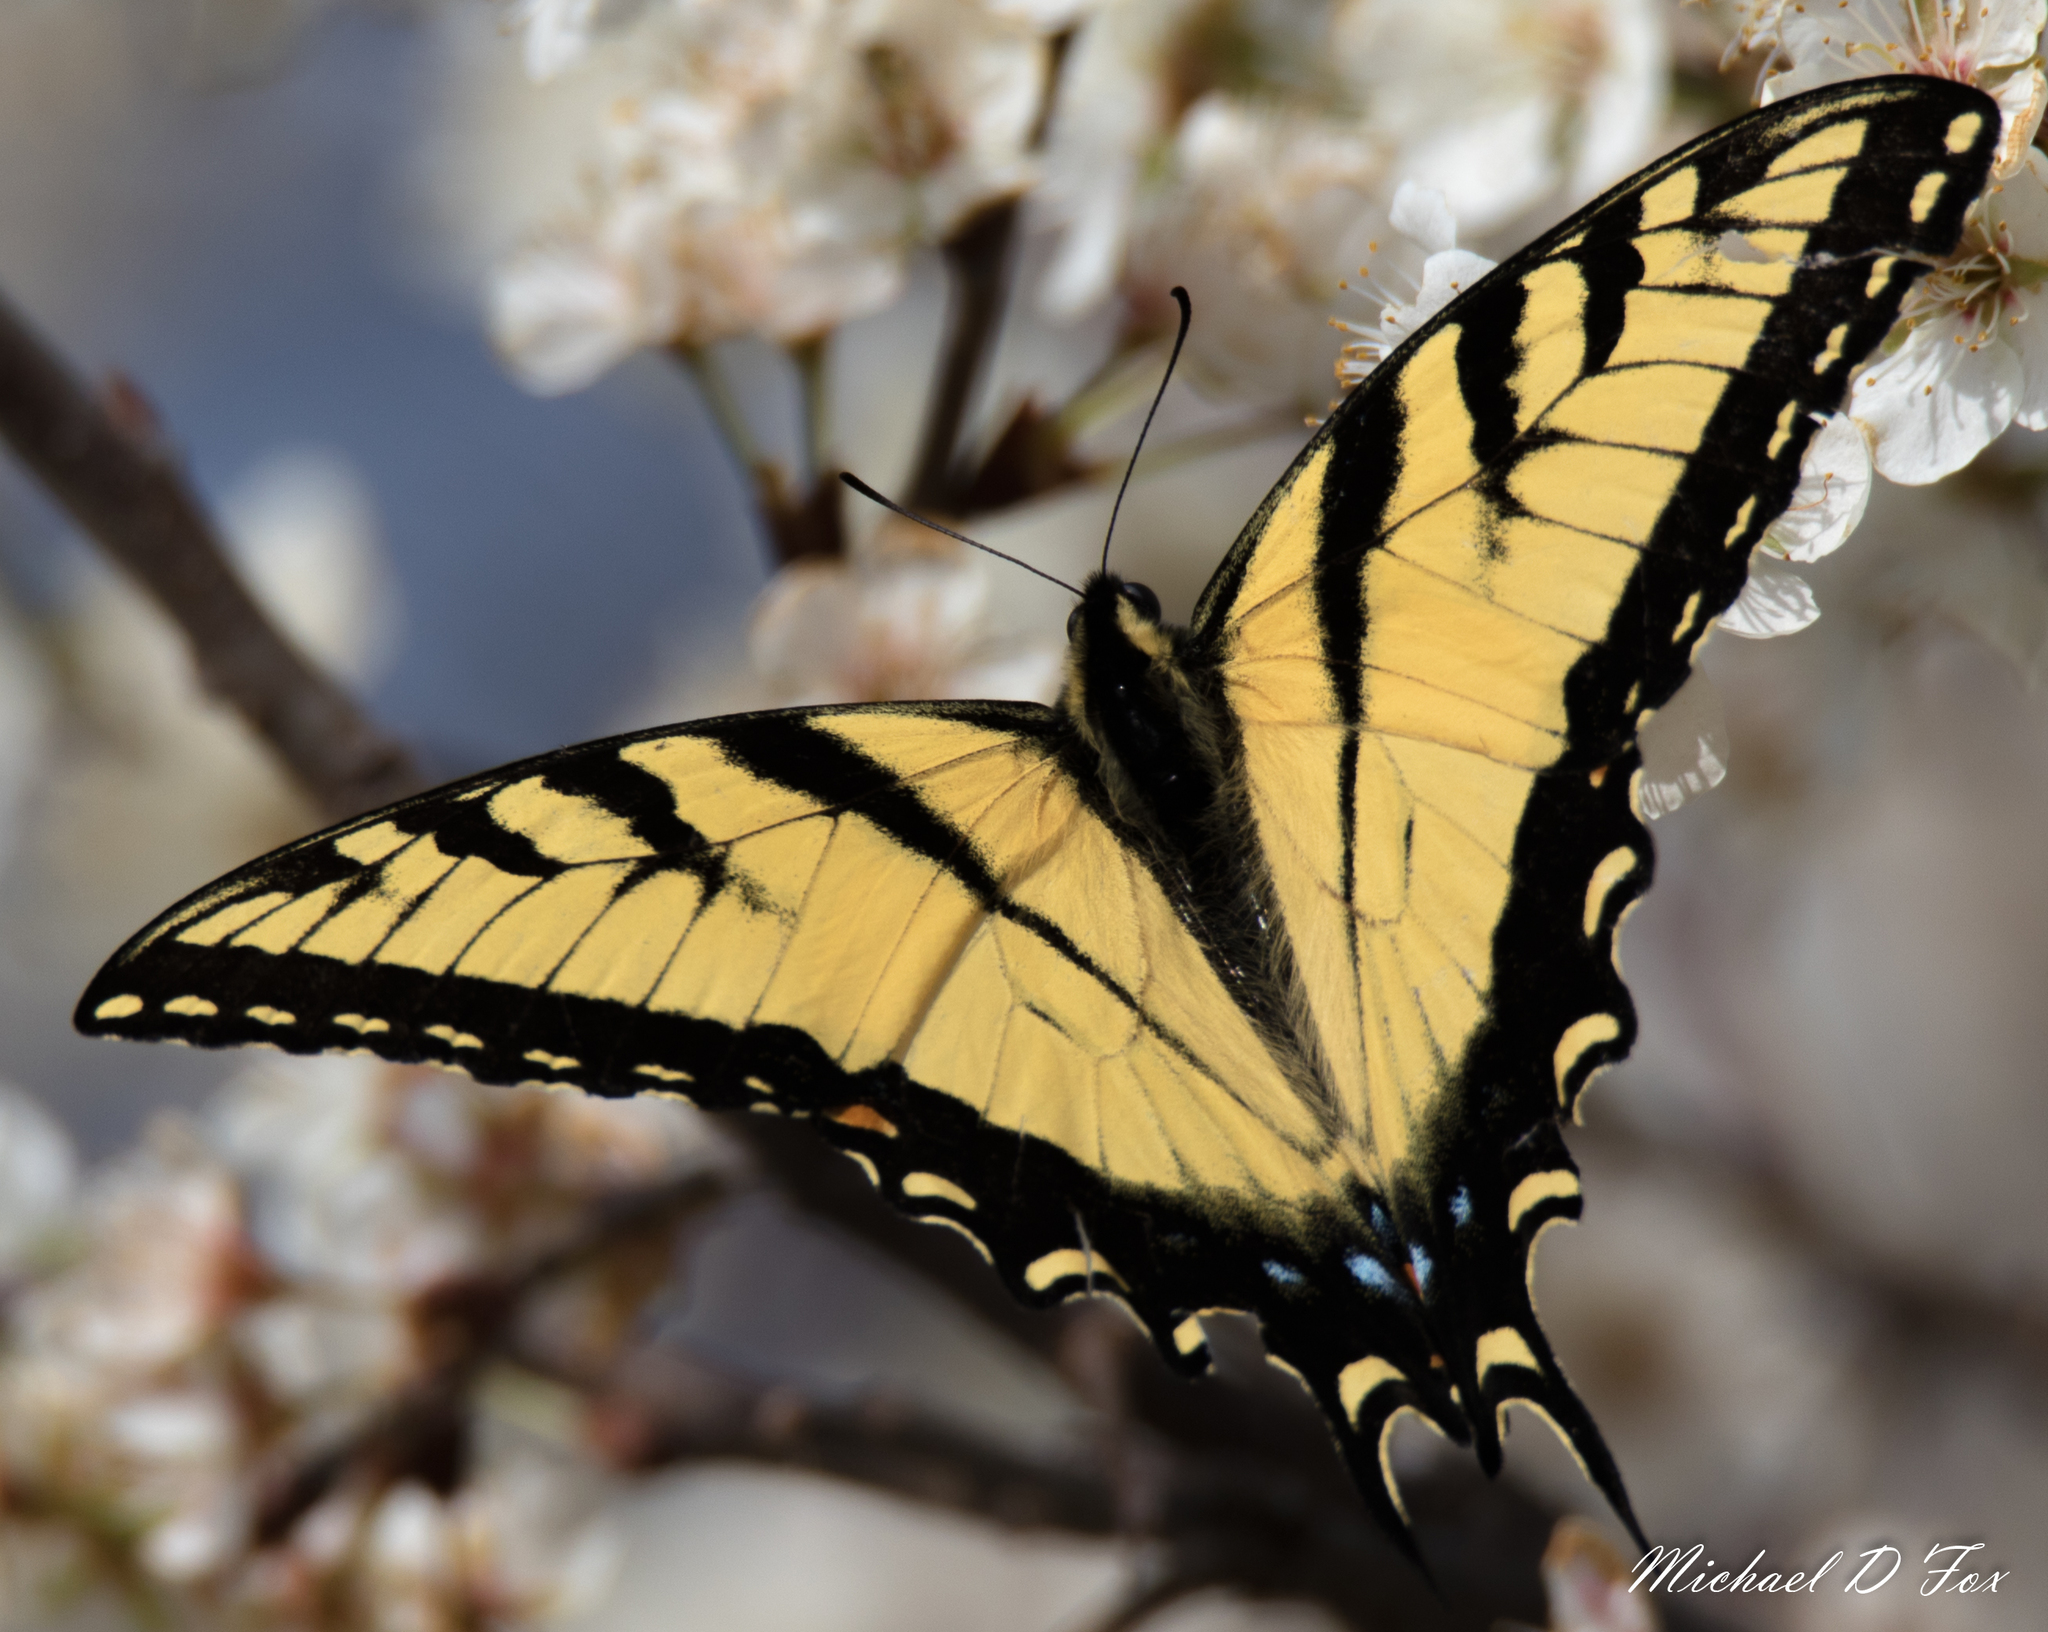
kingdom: Animalia
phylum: Arthropoda
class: Insecta
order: Lepidoptera
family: Papilionidae
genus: Papilio
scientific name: Papilio glaucus
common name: Tiger swallowtail
